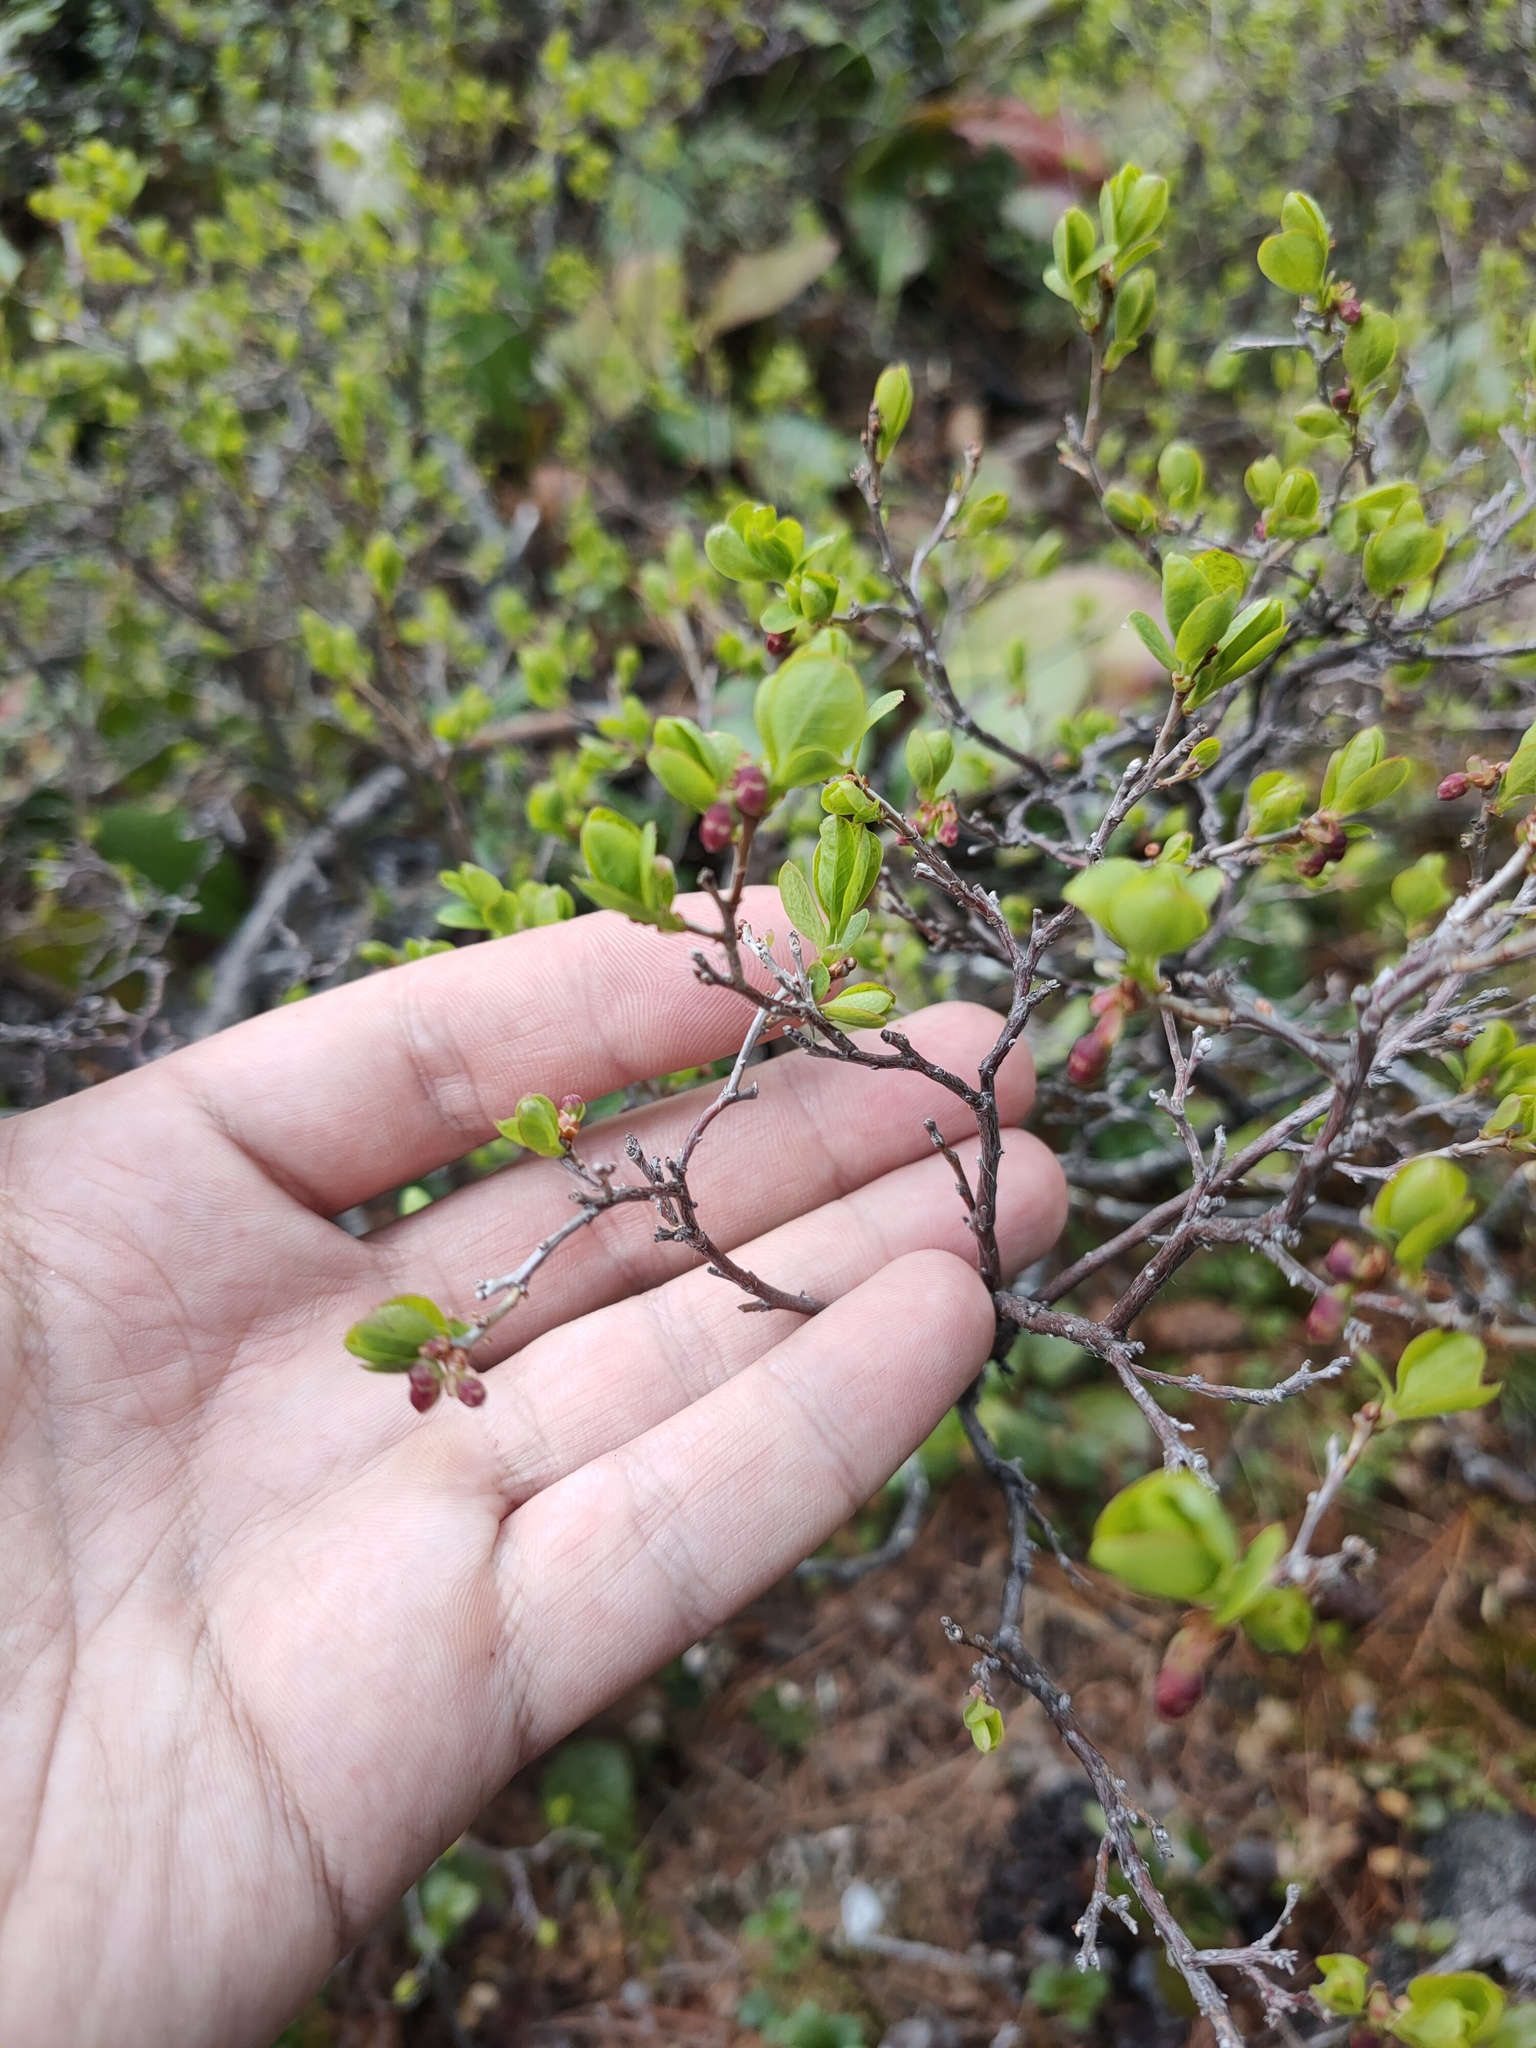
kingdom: Plantae
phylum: Tracheophyta
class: Magnoliopsida
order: Ericales
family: Ericaceae
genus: Vaccinium
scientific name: Vaccinium uliginosum
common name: Bog bilberry
